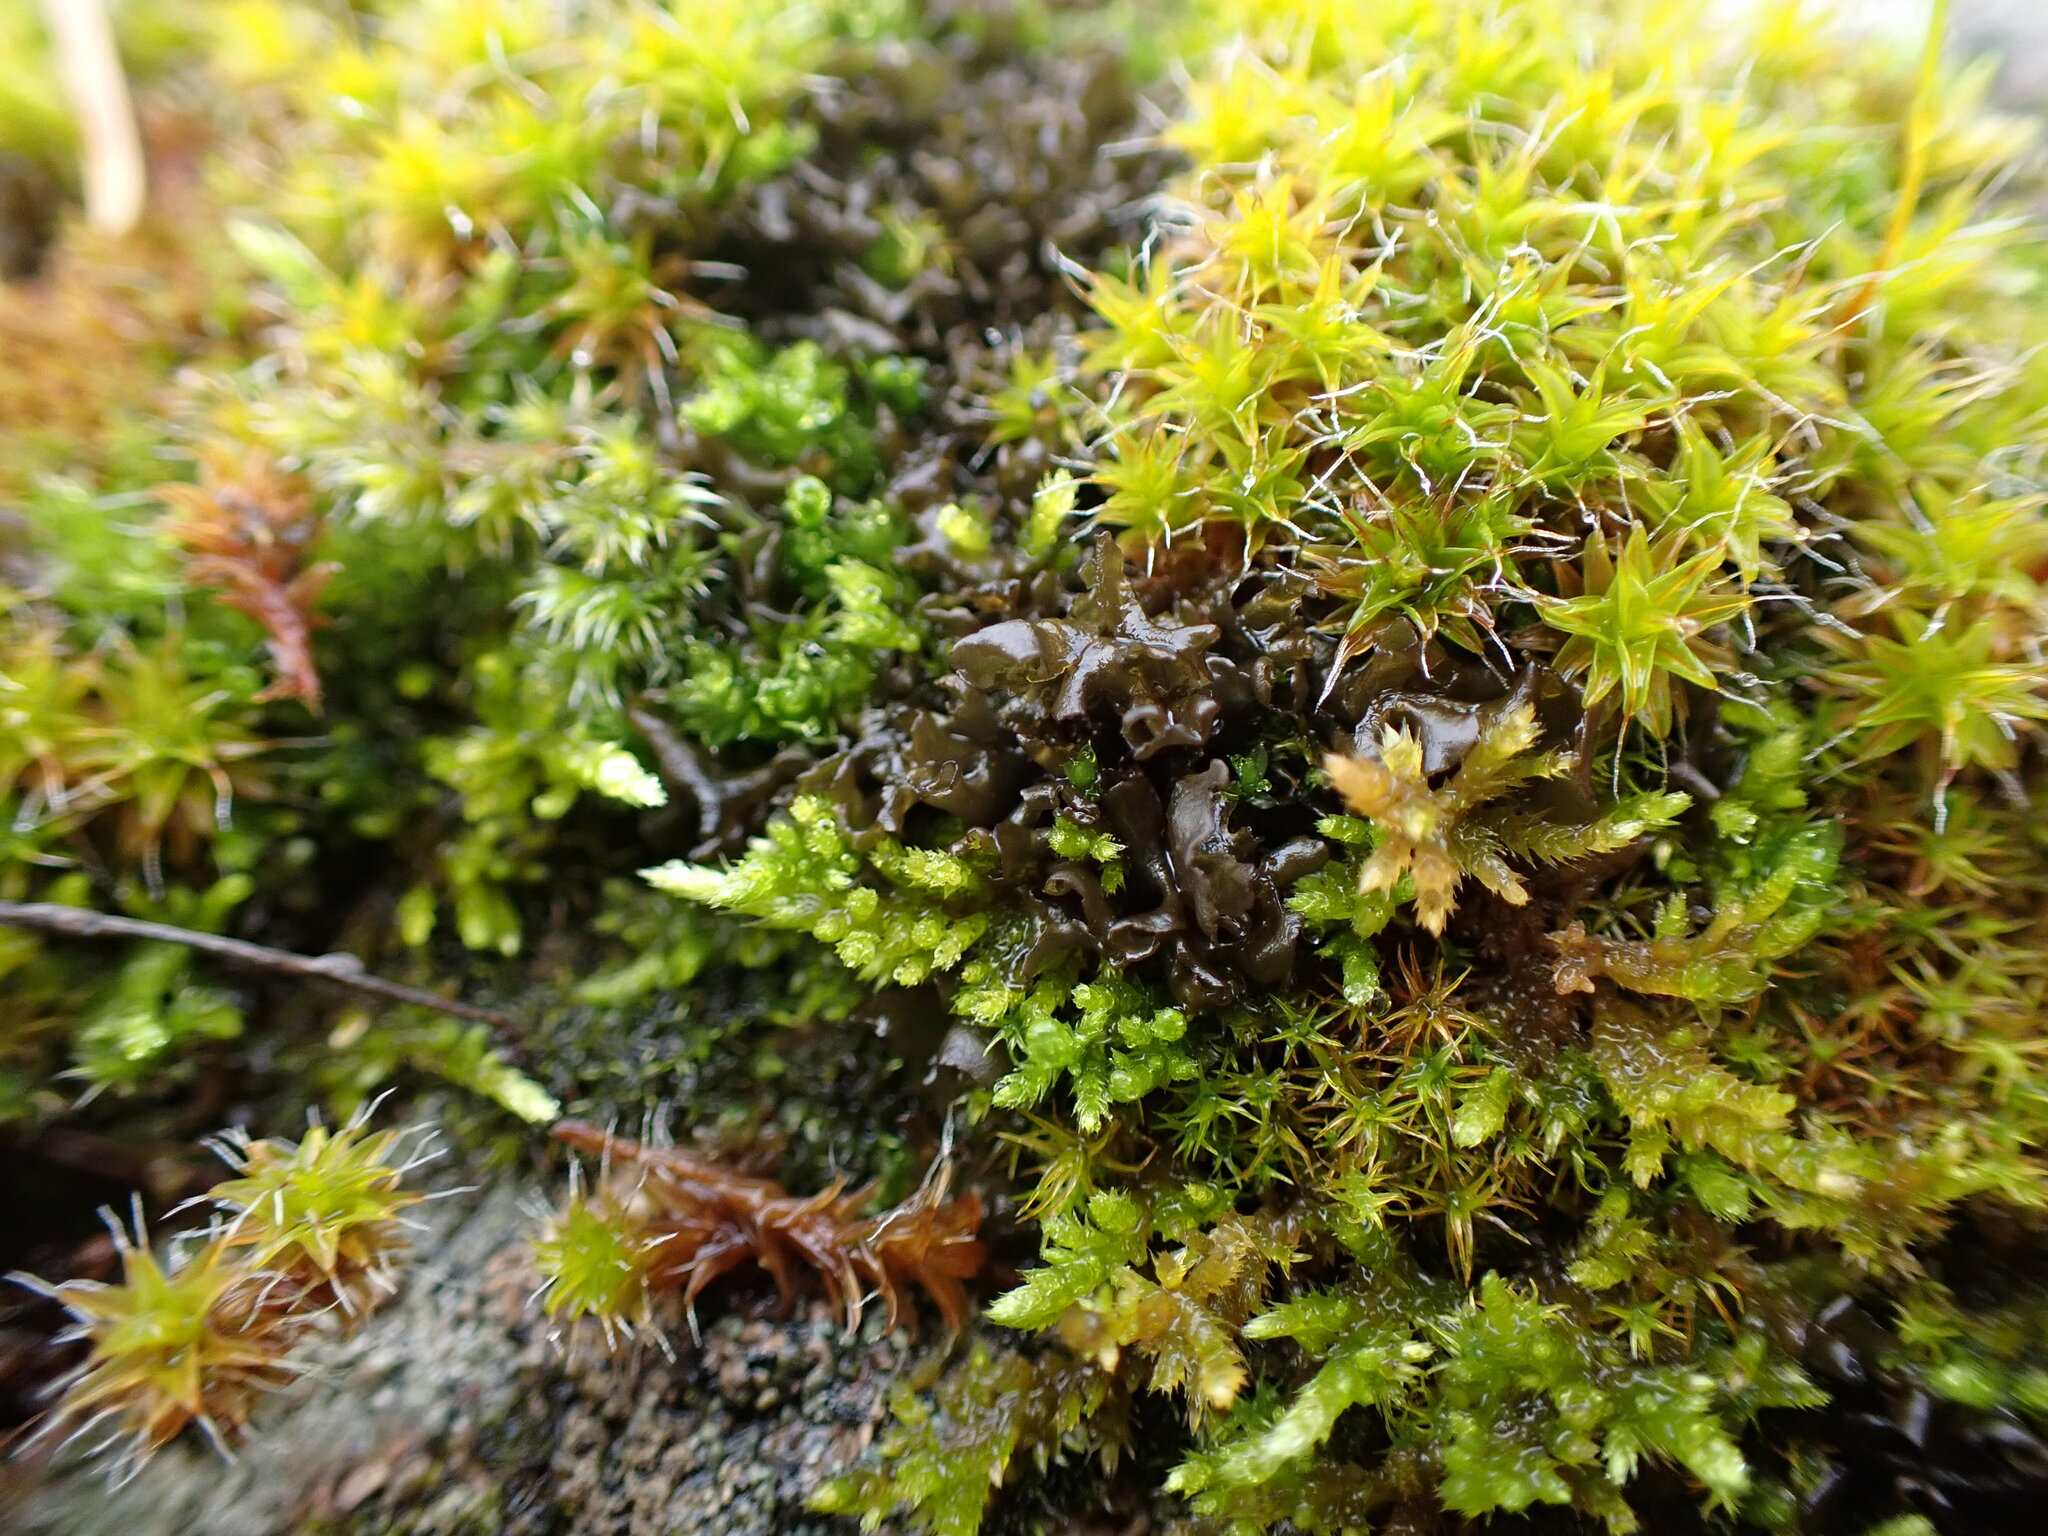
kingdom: Fungi
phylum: Ascomycota
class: Lecanoromycetes
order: Peltigerales
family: Collemataceae
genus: Scytinium
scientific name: Scytinium palmatum
